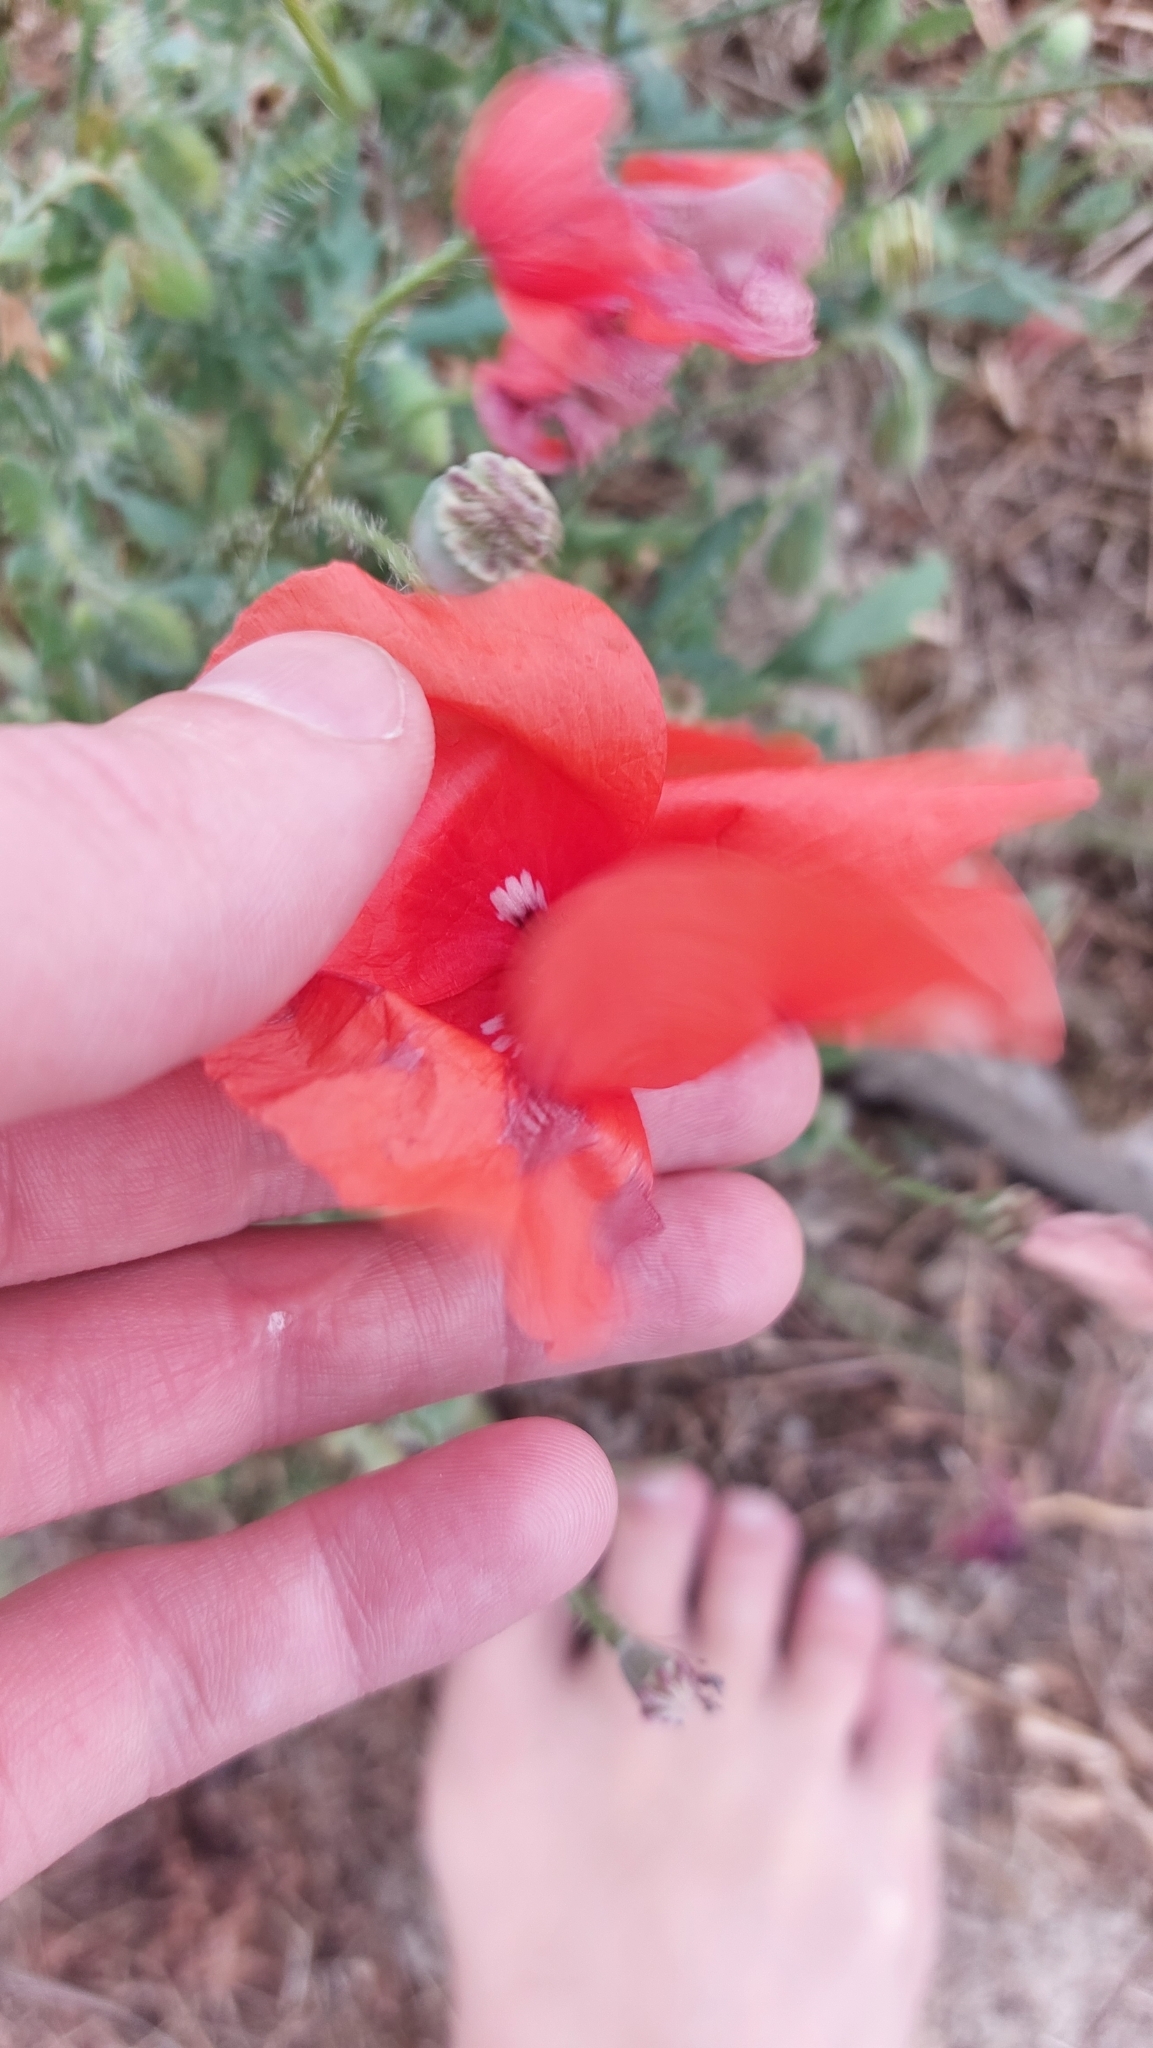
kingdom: Plantae
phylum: Tracheophyta
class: Magnoliopsida
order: Ranunculales
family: Papaveraceae
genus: Papaver
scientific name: Papaver rhoeas
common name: Corn poppy
